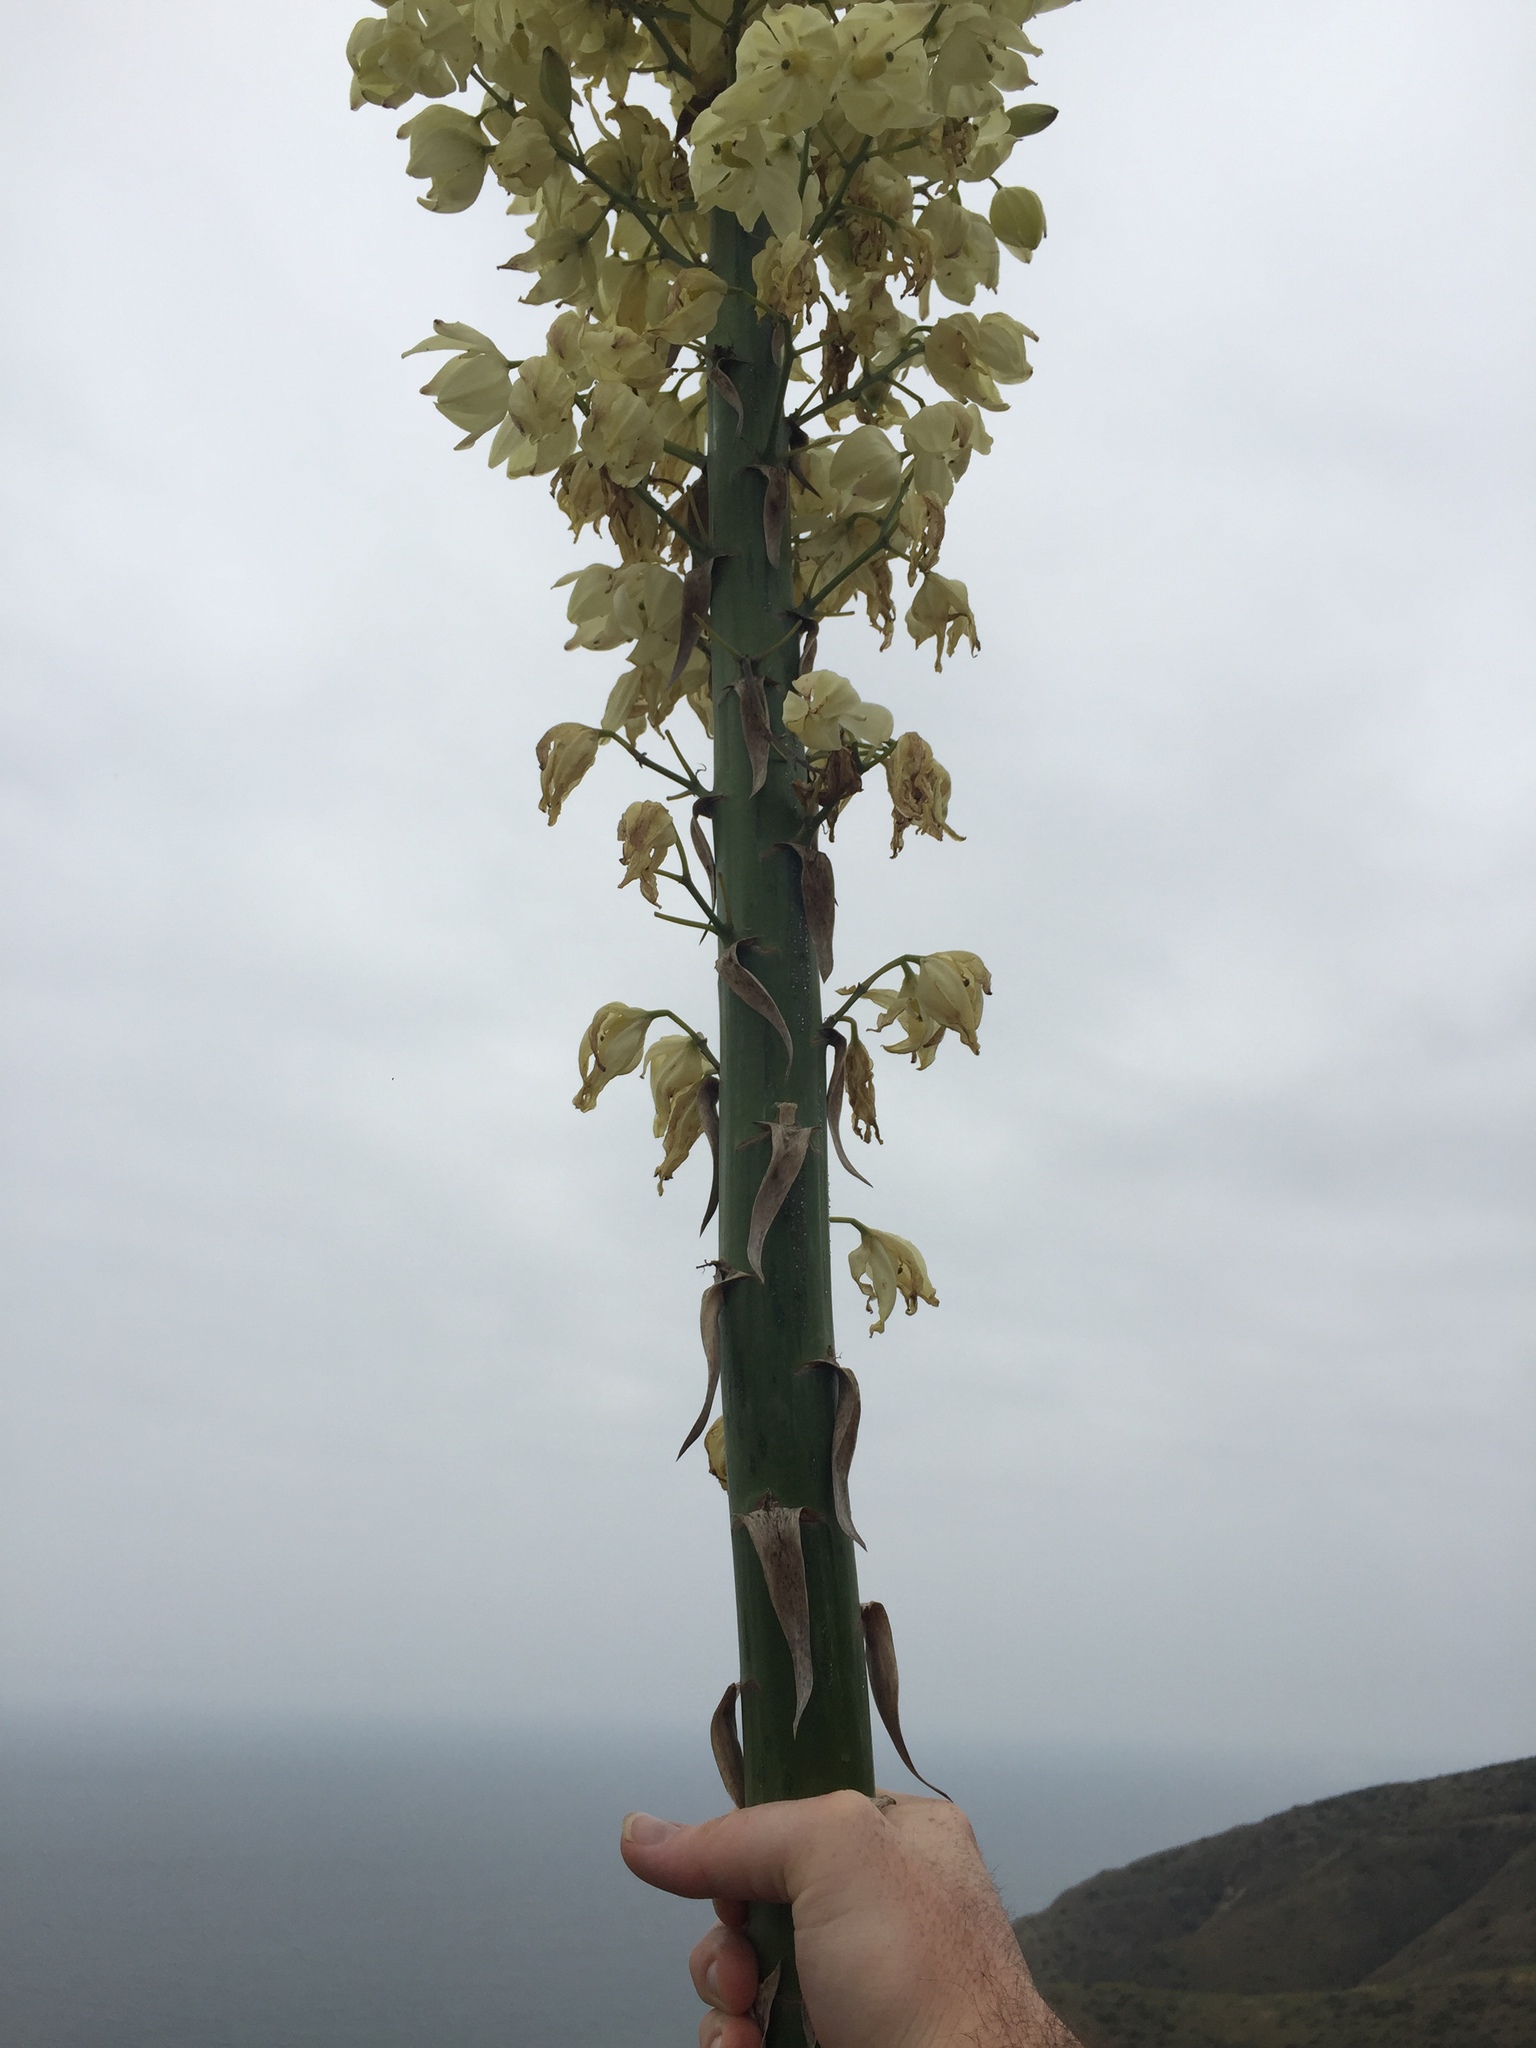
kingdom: Plantae
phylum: Tracheophyta
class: Liliopsida
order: Asparagales
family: Asparagaceae
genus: Hesperoyucca
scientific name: Hesperoyucca whipplei
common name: Our lord's-candle
